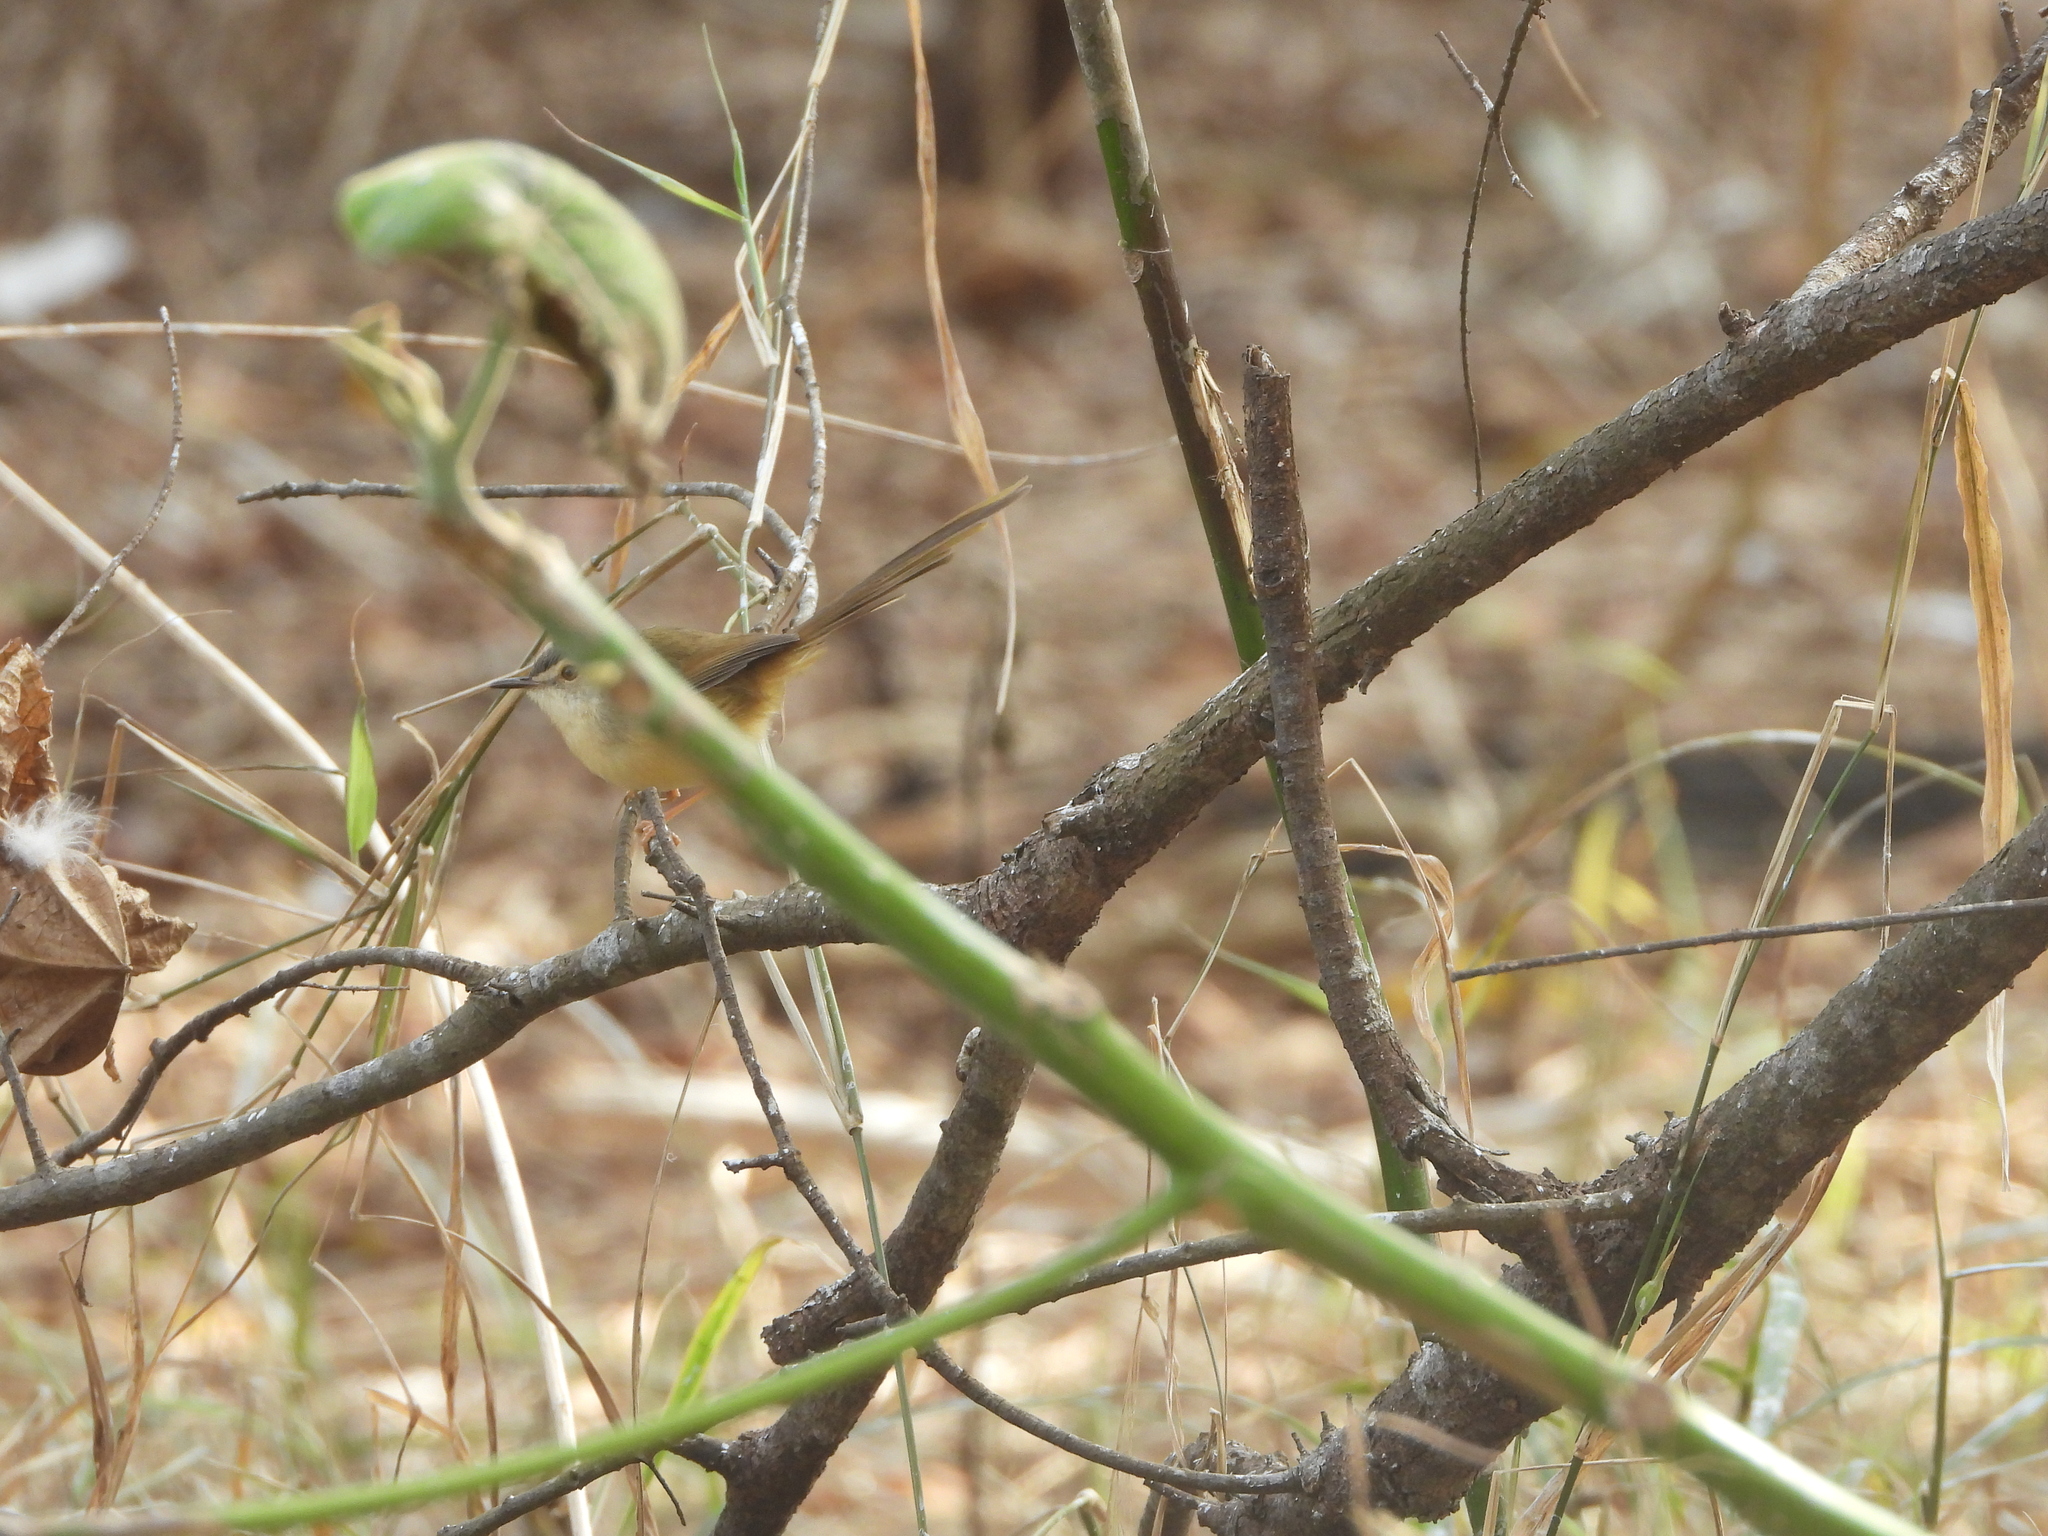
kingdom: Animalia
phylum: Chordata
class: Aves
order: Passeriformes
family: Cisticolidae
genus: Prinia
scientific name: Prinia flaviventris
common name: Yellow-bellied prinia
